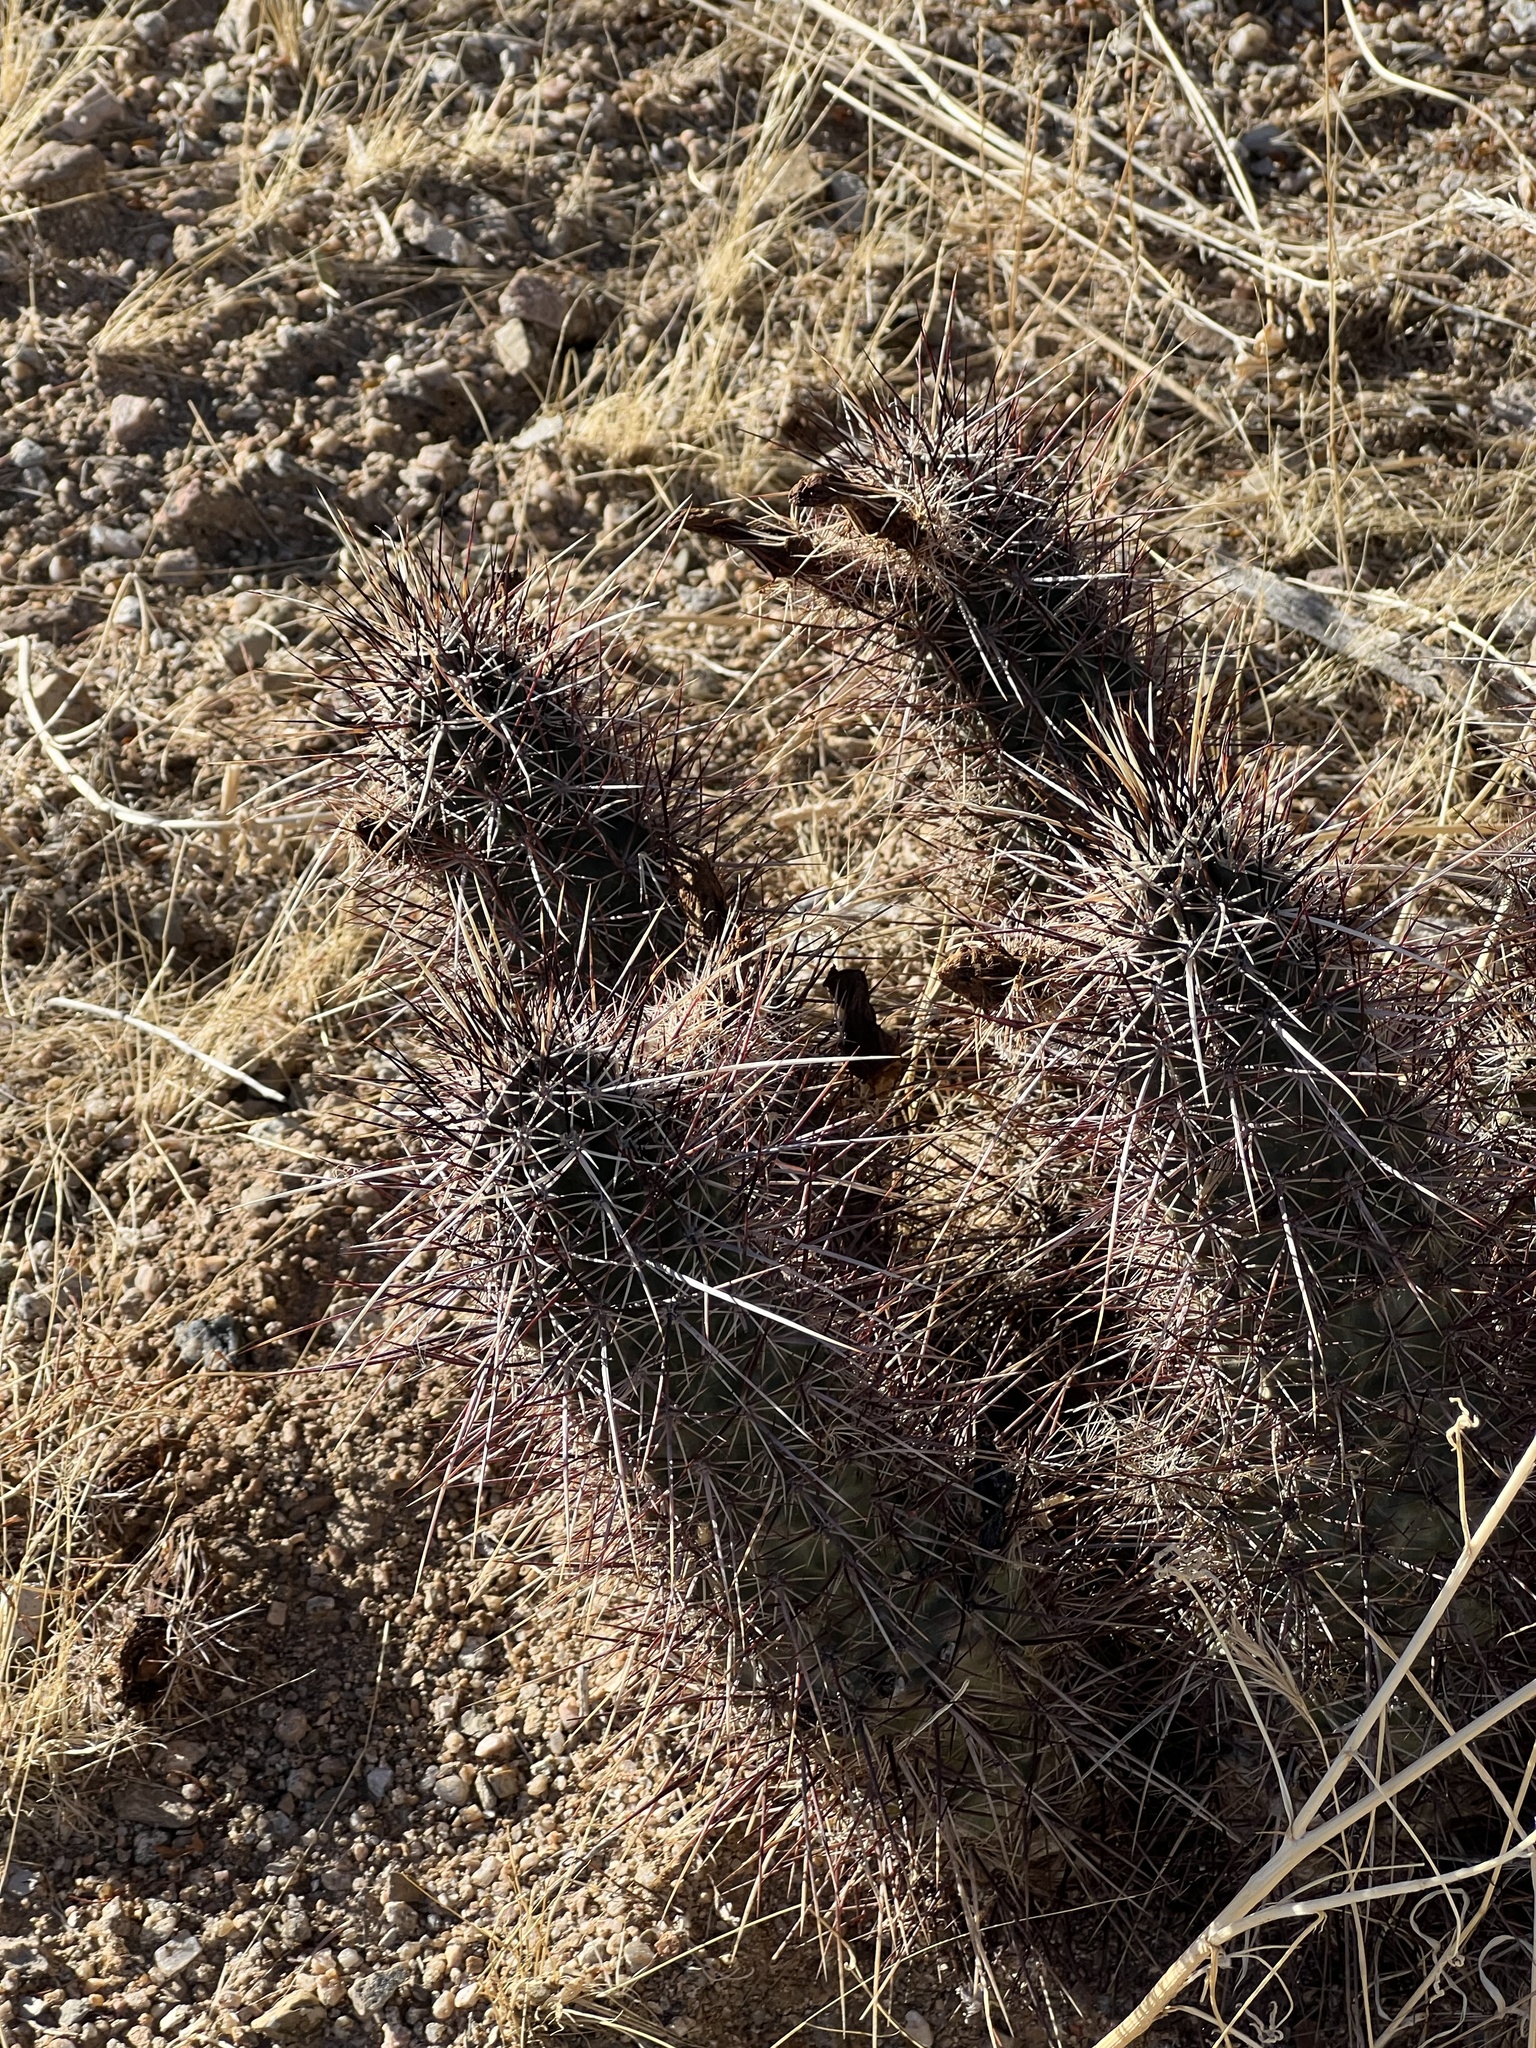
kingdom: Plantae
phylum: Tracheophyta
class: Magnoliopsida
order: Caryophyllales
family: Cactaceae
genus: Echinocereus
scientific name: Echinocereus engelmannii
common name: Engelmann's hedgehog cactus
